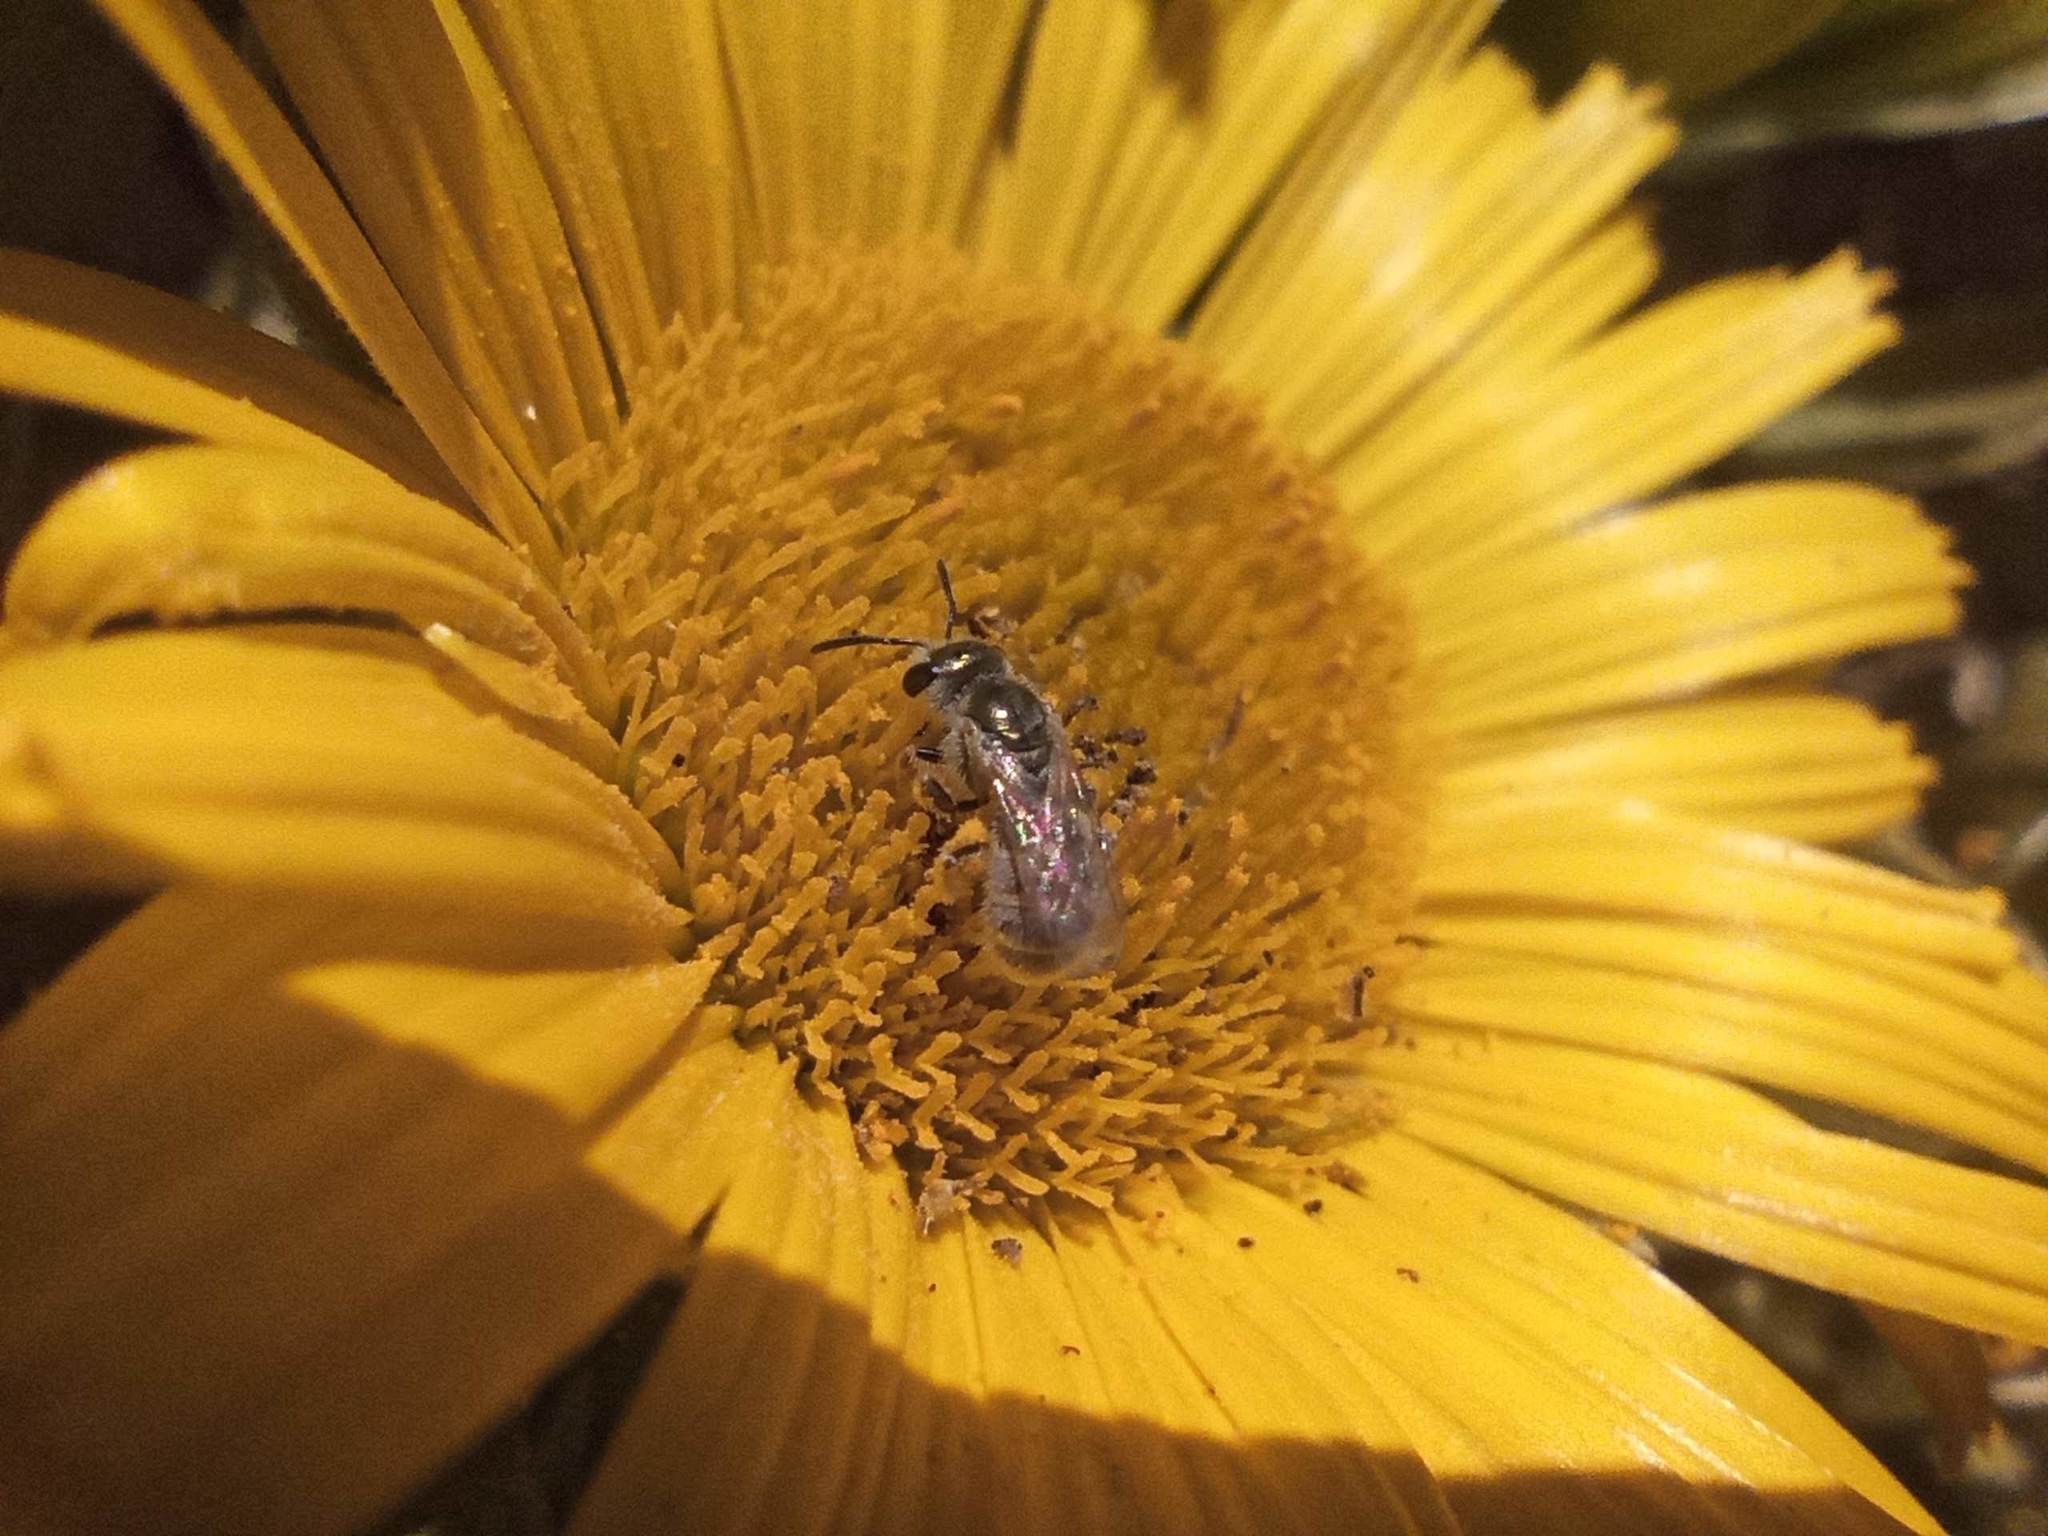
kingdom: Animalia
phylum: Arthropoda
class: Insecta
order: Hymenoptera
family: Halictidae
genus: Halictus
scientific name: Halictus concinnus
